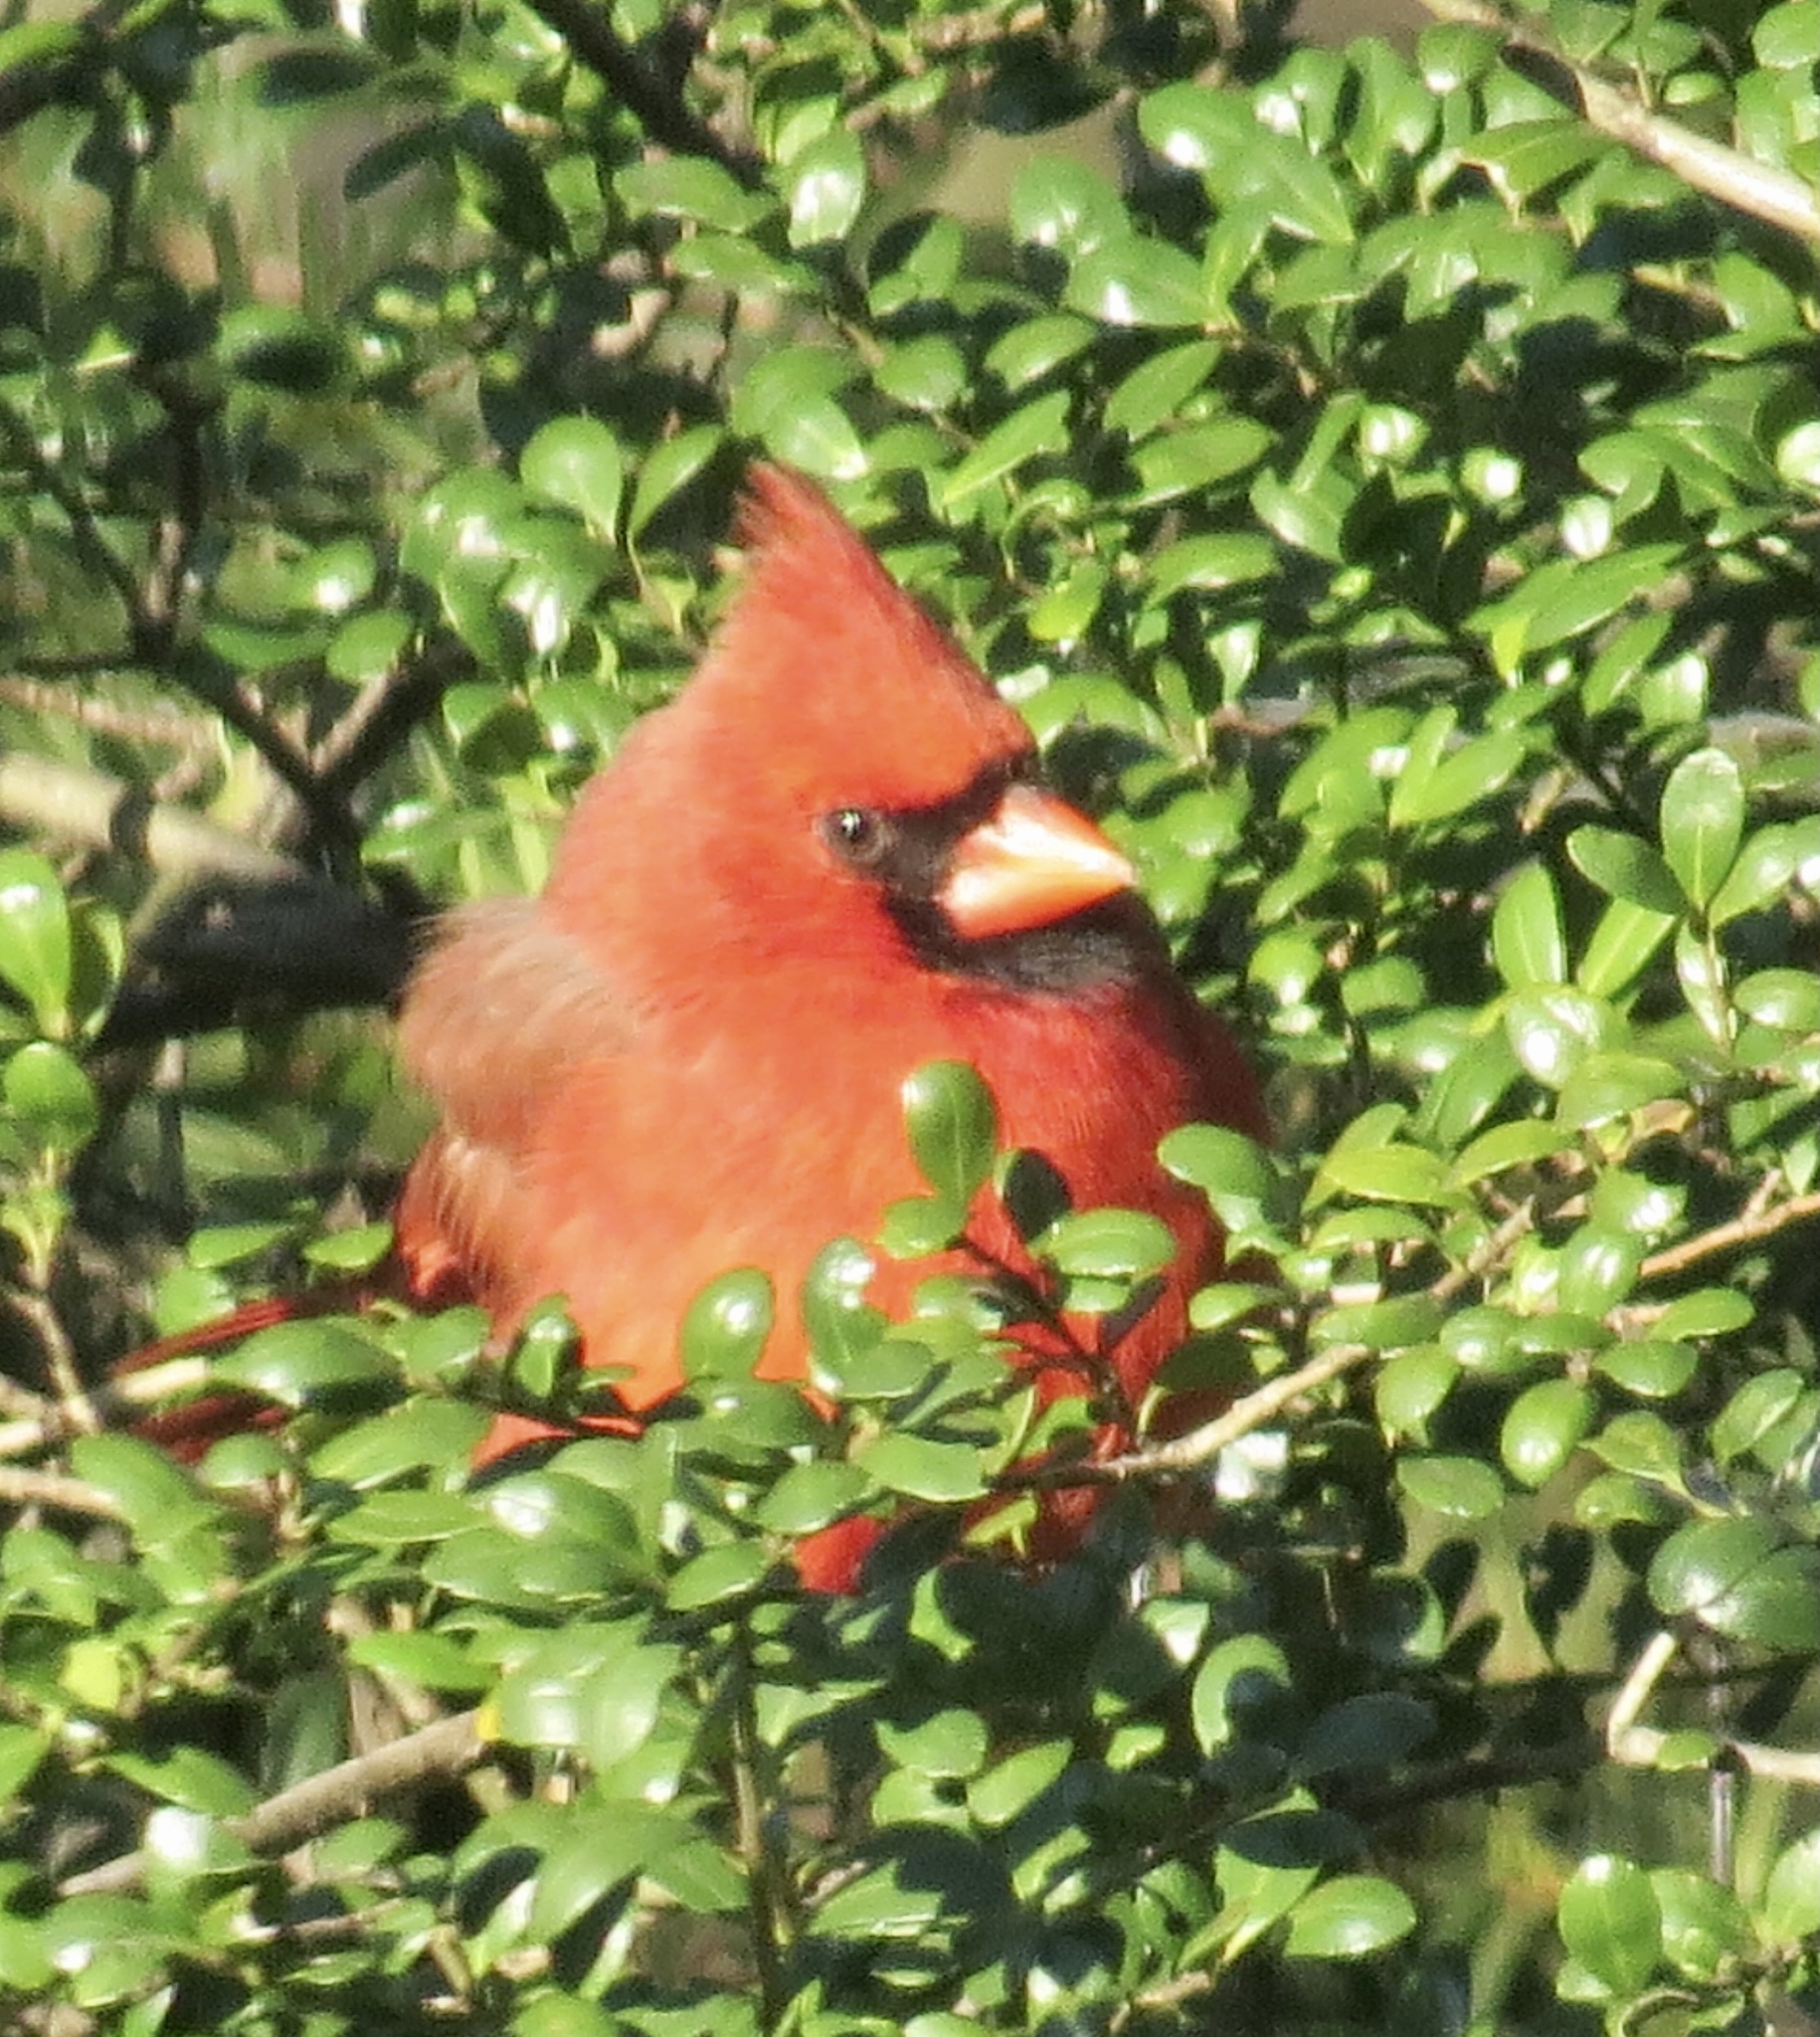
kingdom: Animalia
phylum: Chordata
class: Aves
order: Passeriformes
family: Cardinalidae
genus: Cardinalis
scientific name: Cardinalis cardinalis
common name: Northern cardinal
